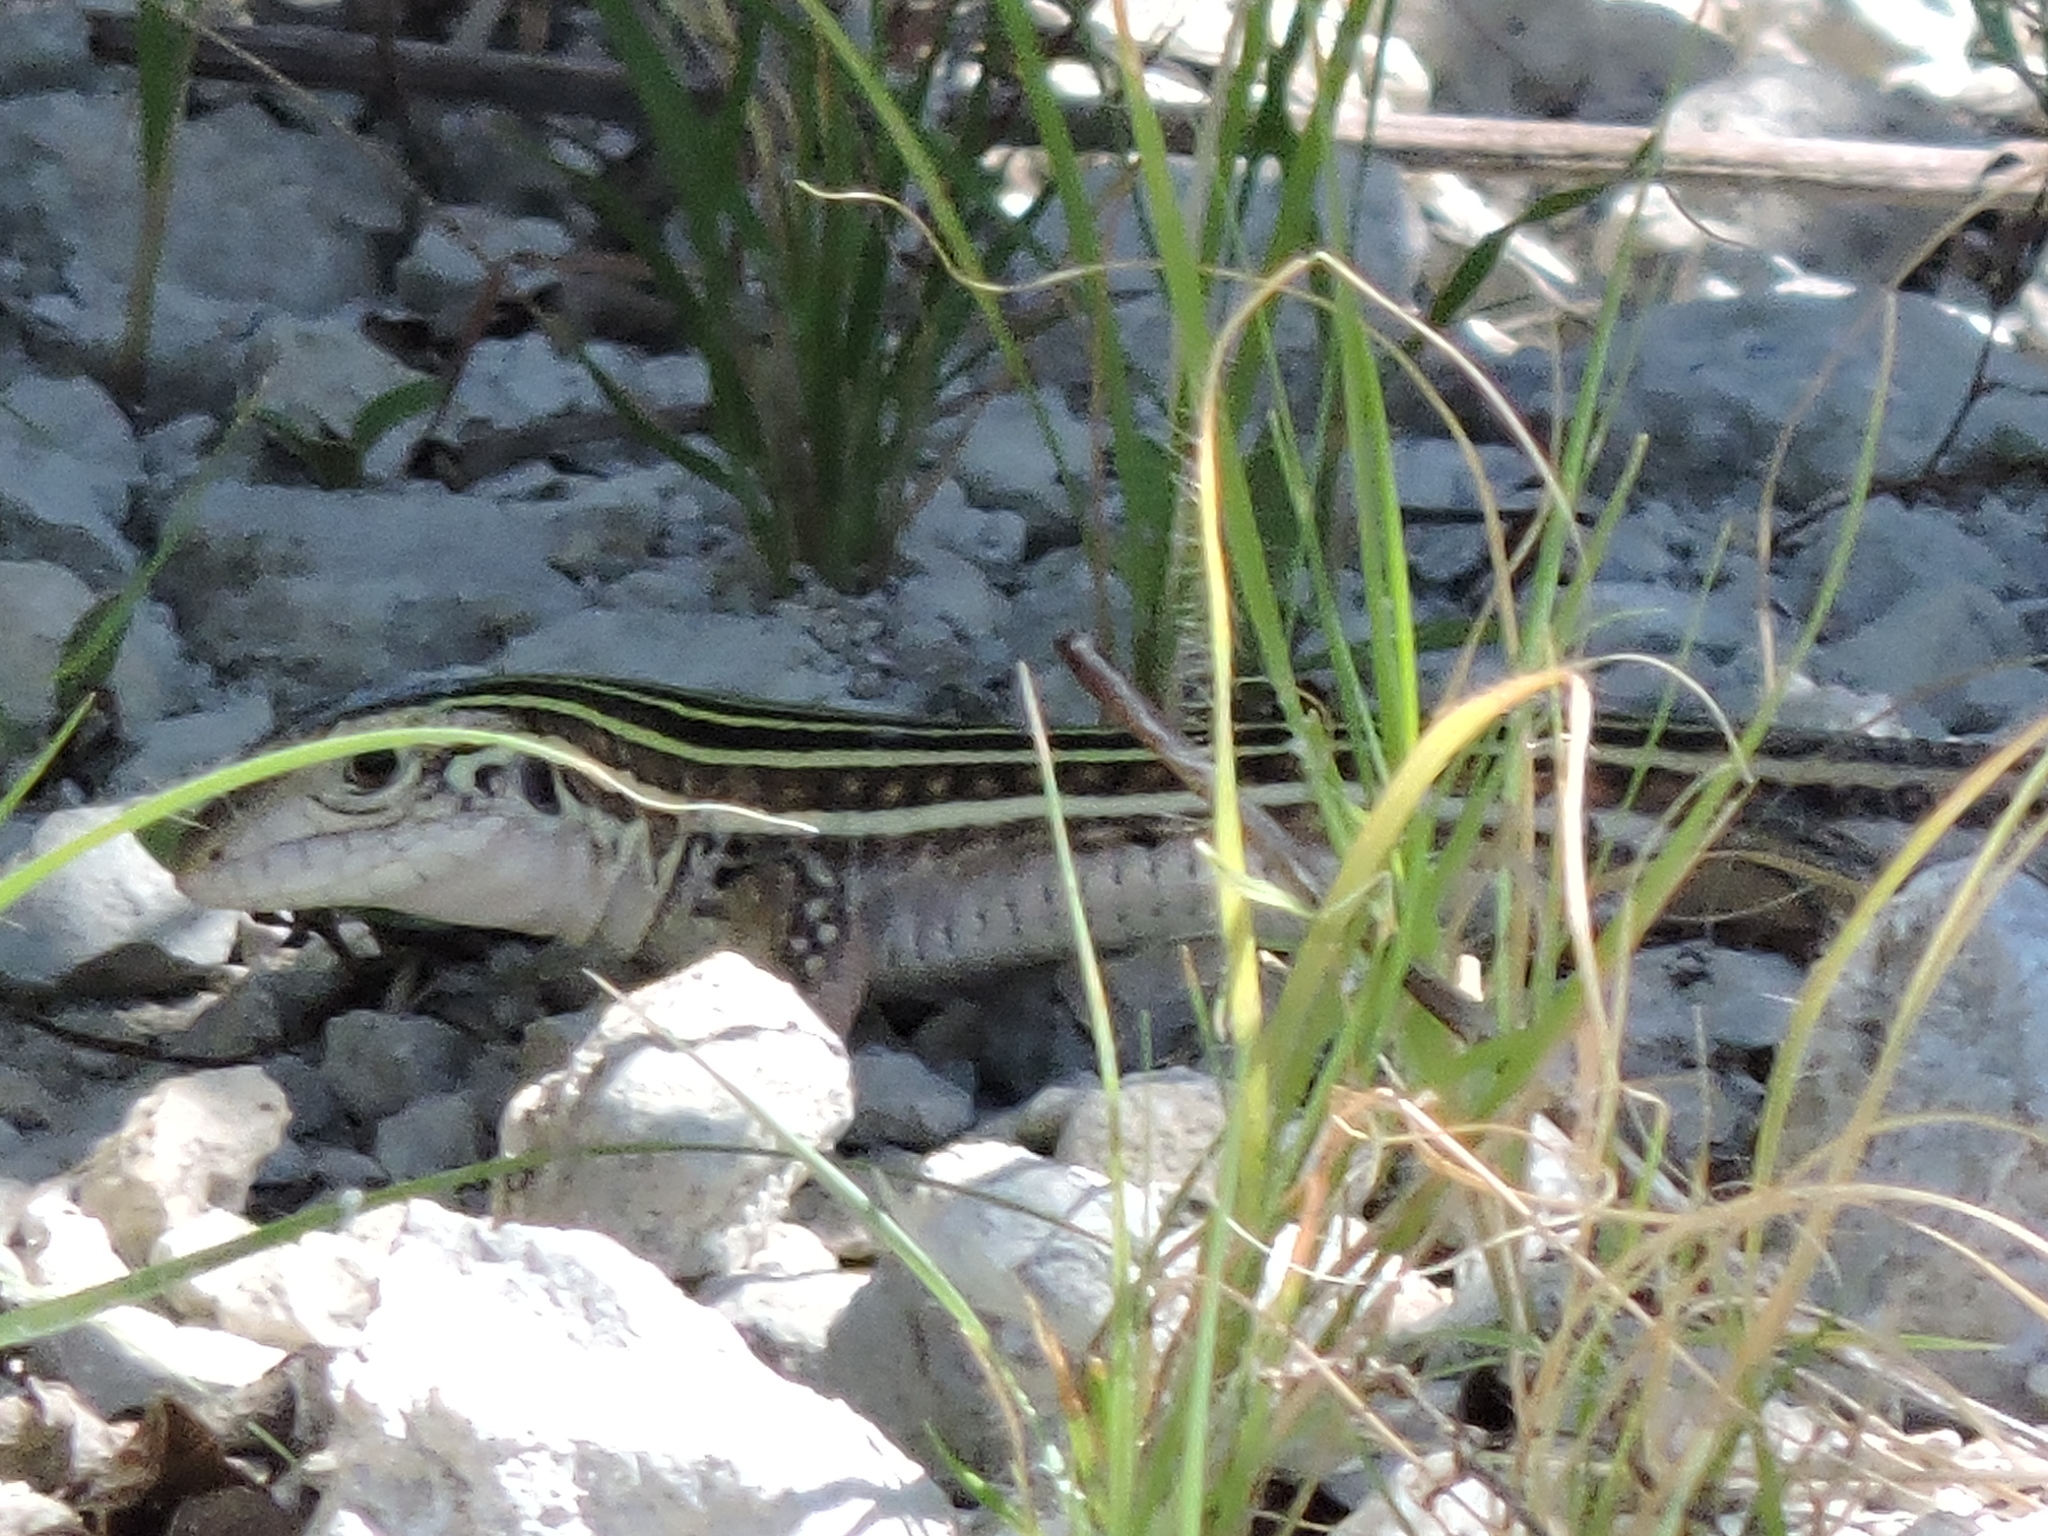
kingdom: Animalia
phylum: Chordata
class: Squamata
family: Teiidae
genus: Aspidoscelis
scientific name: Aspidoscelis gularis
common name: Eastern spotted whiptail
